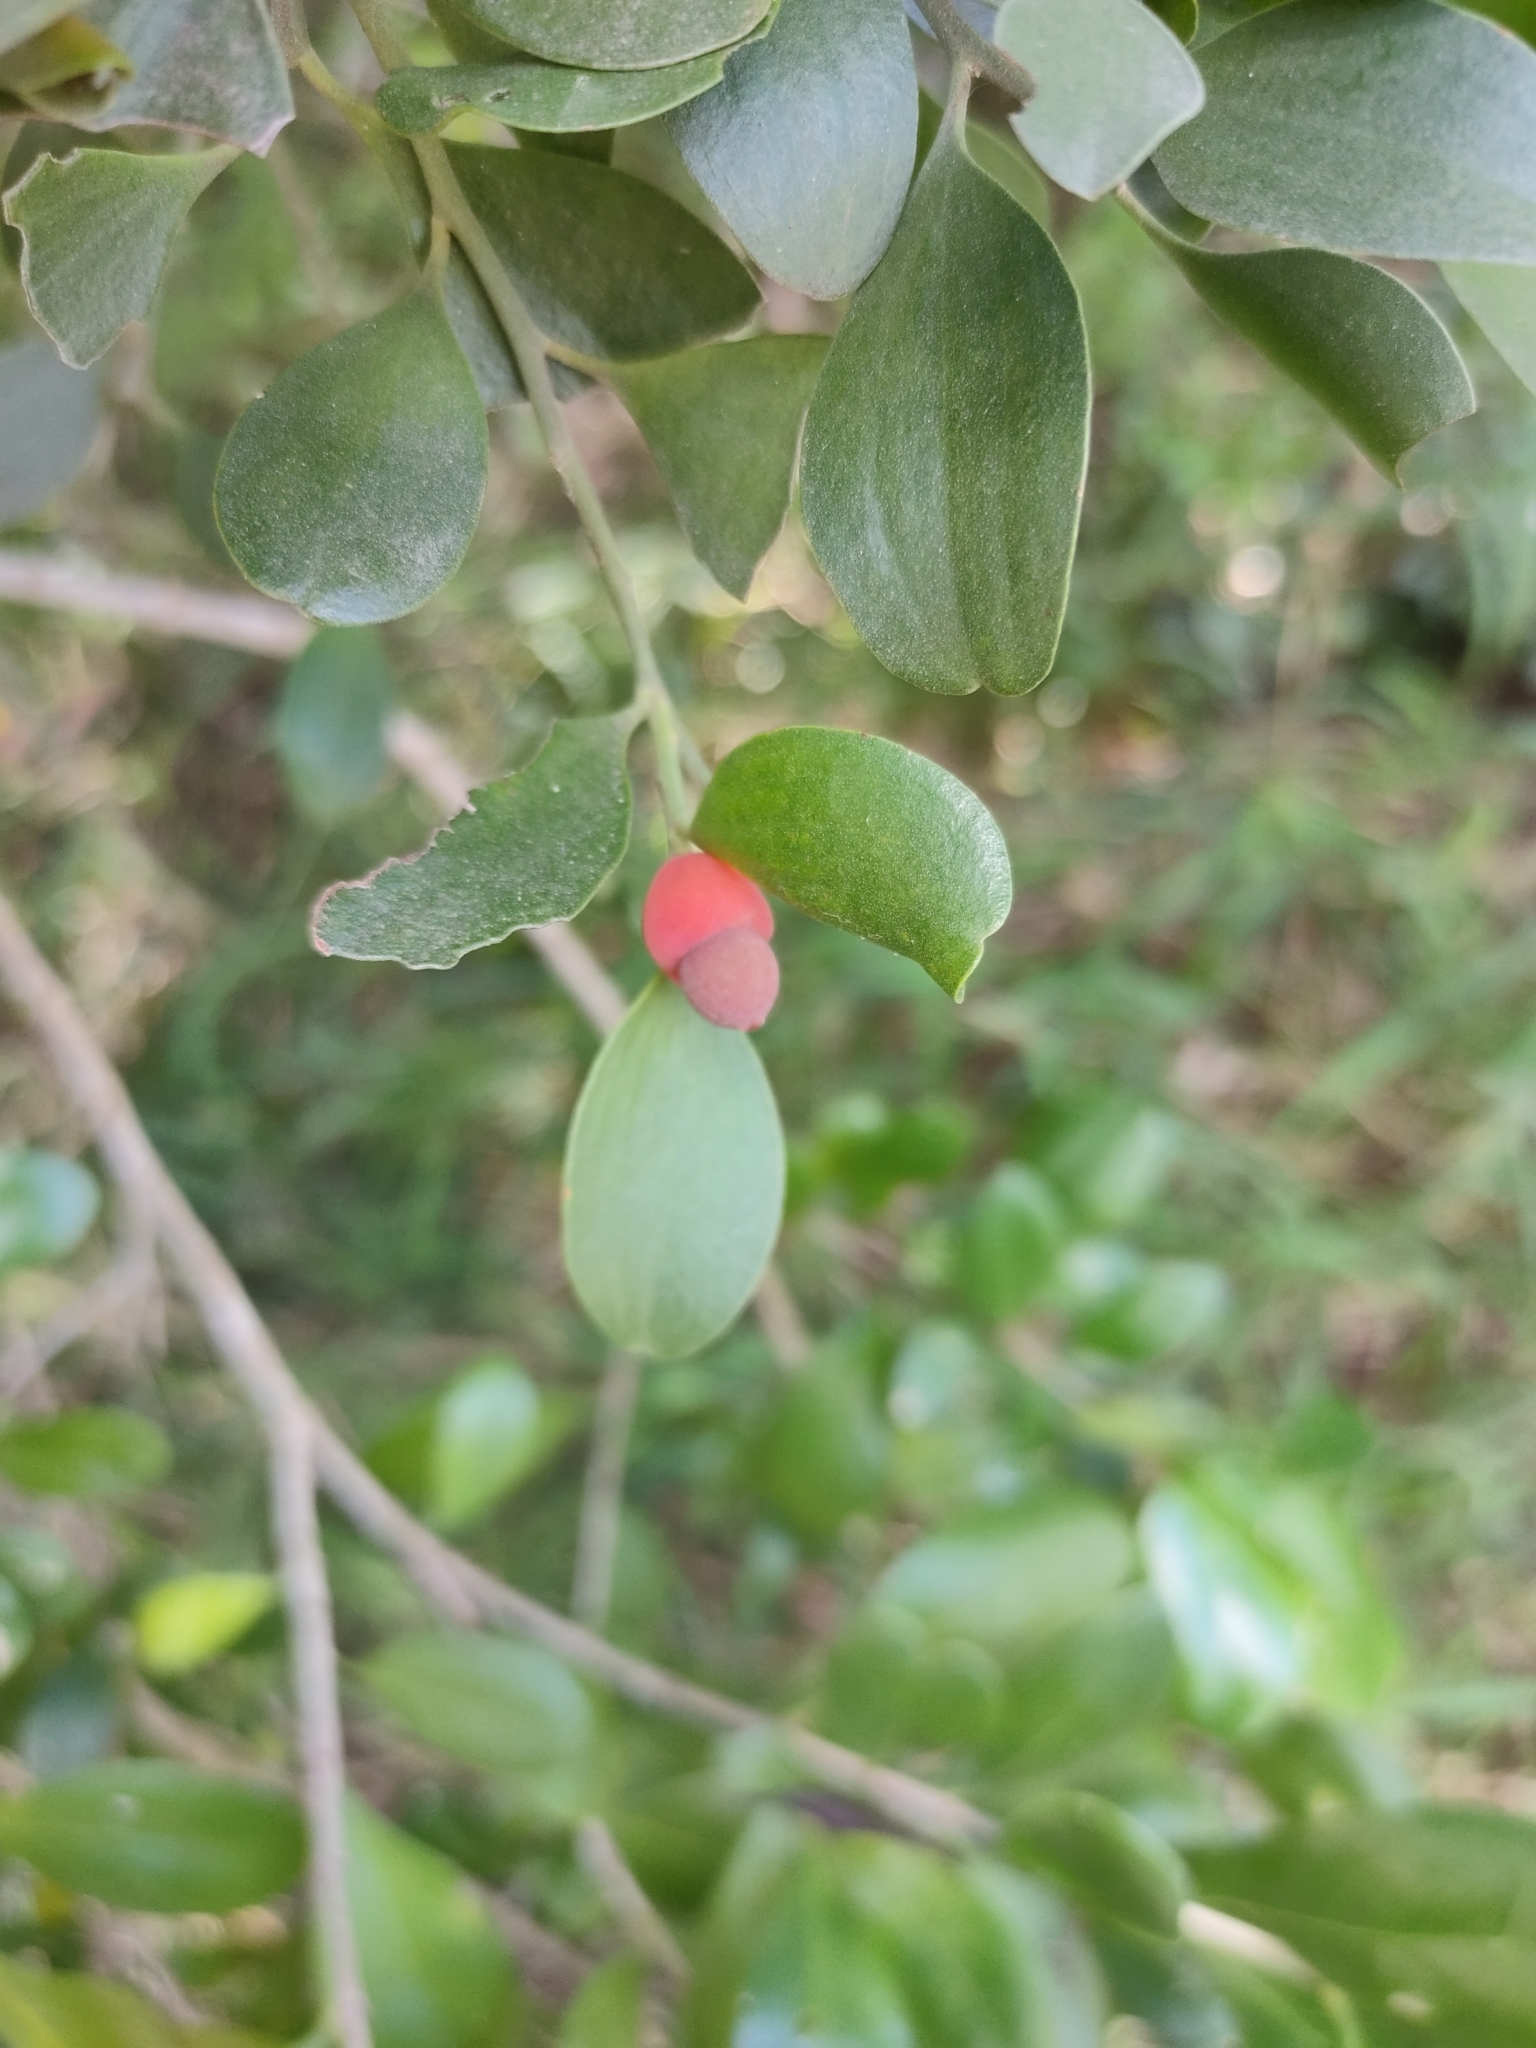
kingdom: Plantae
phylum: Tracheophyta
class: Magnoliopsida
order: Santalales
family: Santalaceae
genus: Exocarpos
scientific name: Exocarpos latifolius
